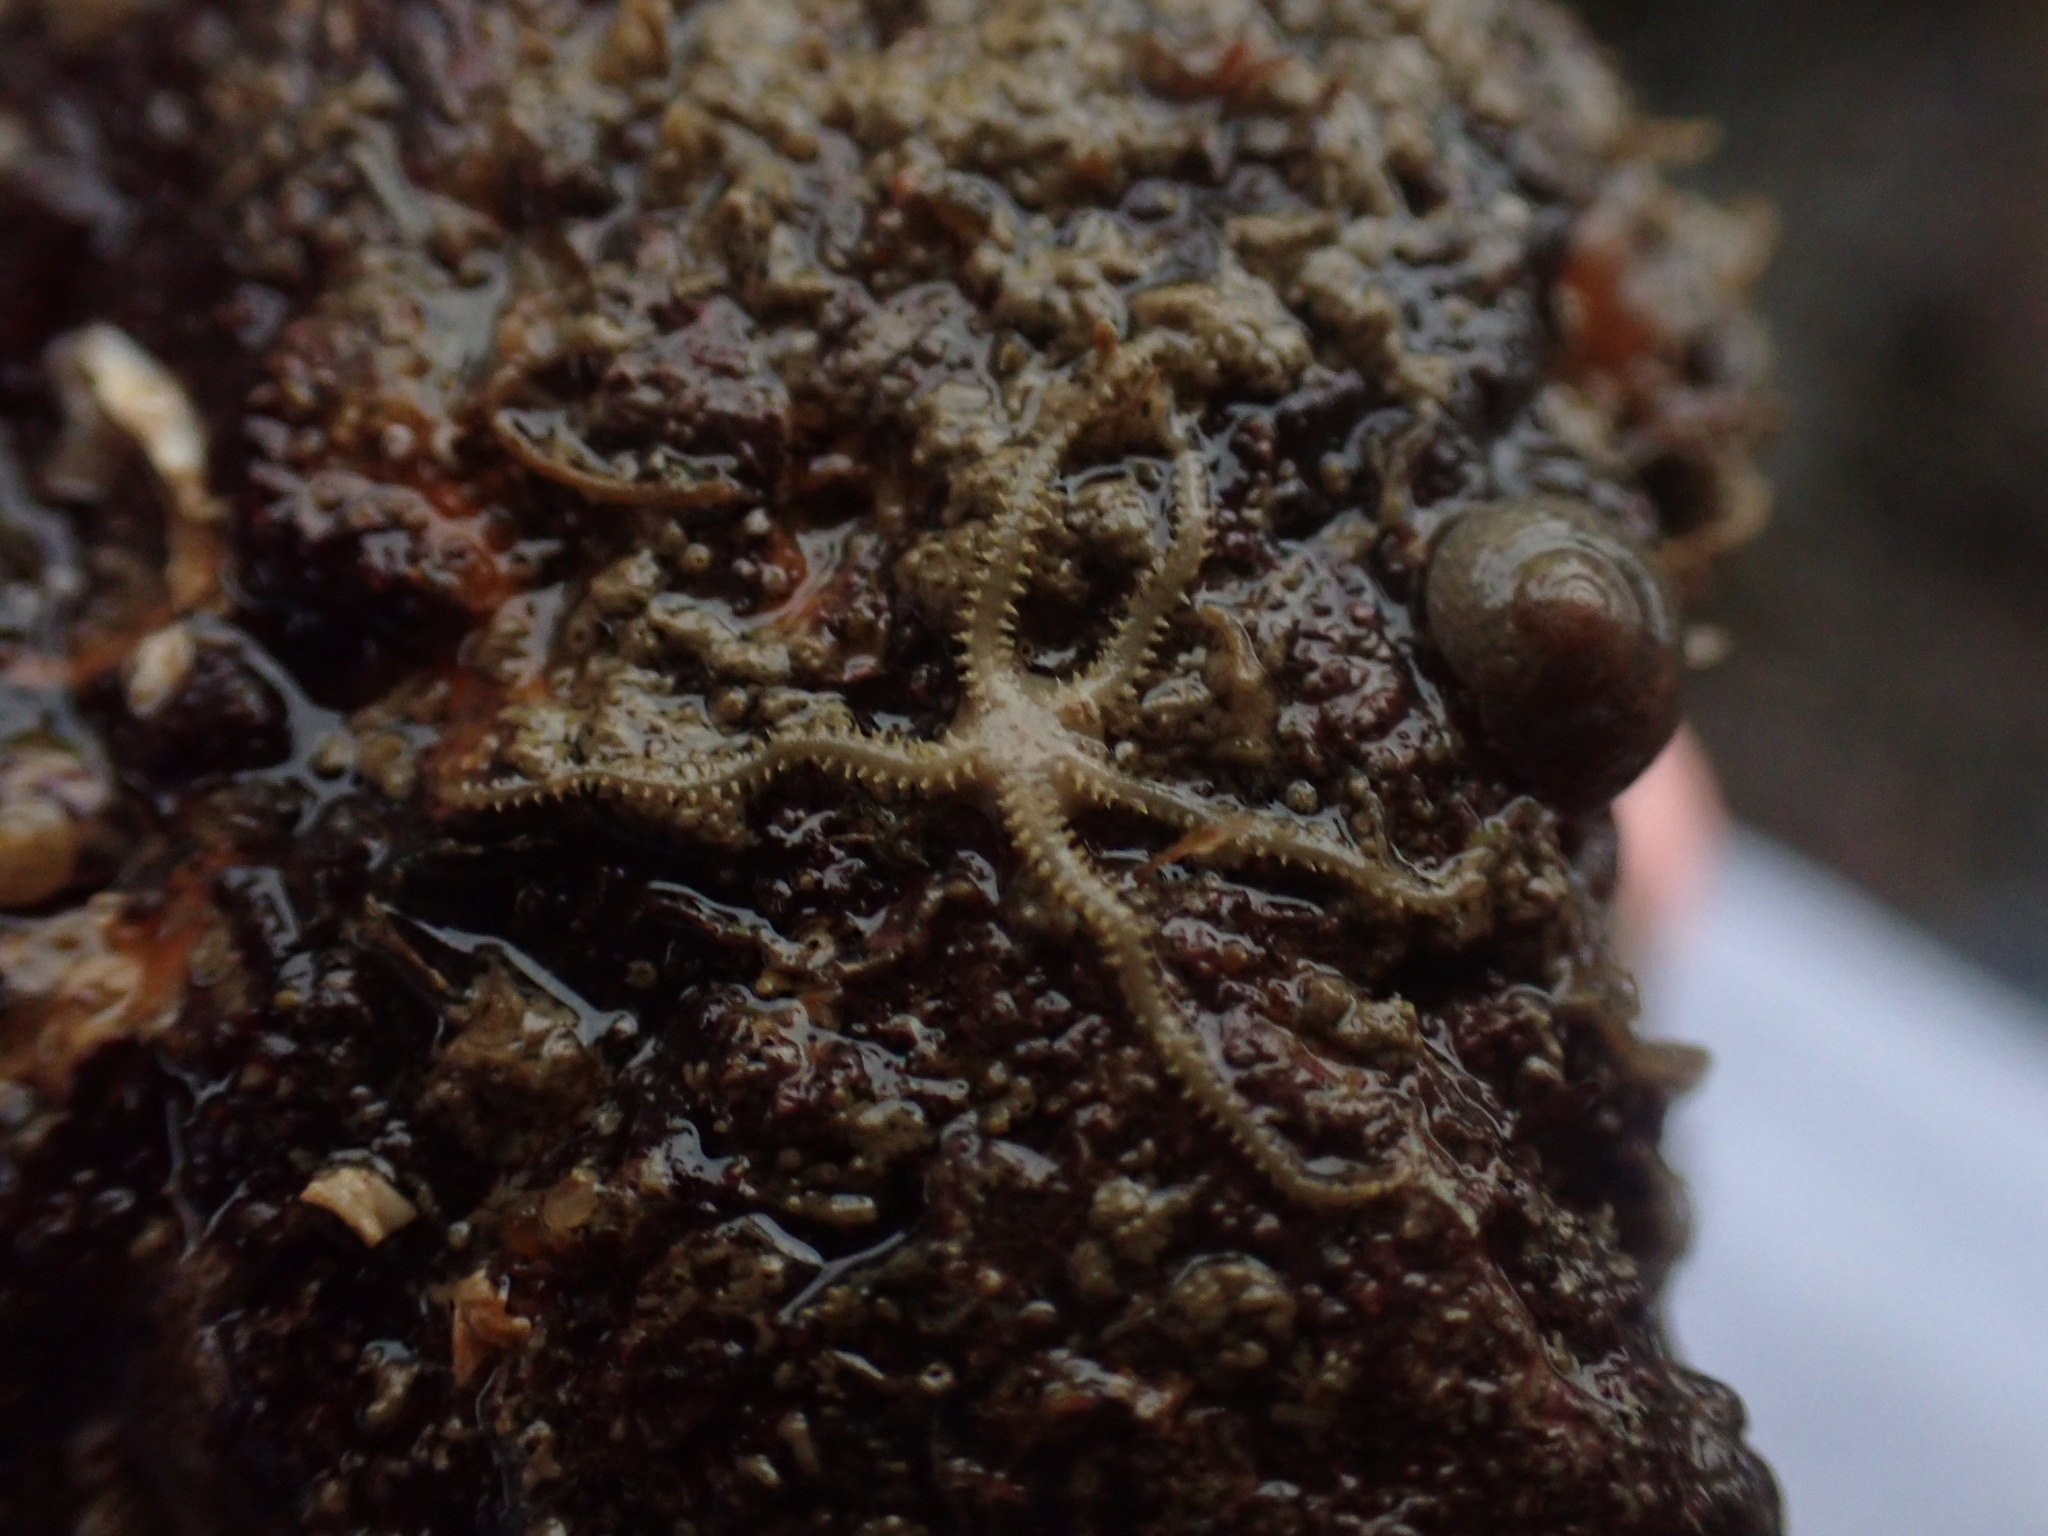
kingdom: Animalia
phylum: Echinodermata
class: Ophiuroidea
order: Amphilepidida
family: Amphiuridae
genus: Amphipholis
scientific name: Amphipholis squamata
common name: Brooding snake star
